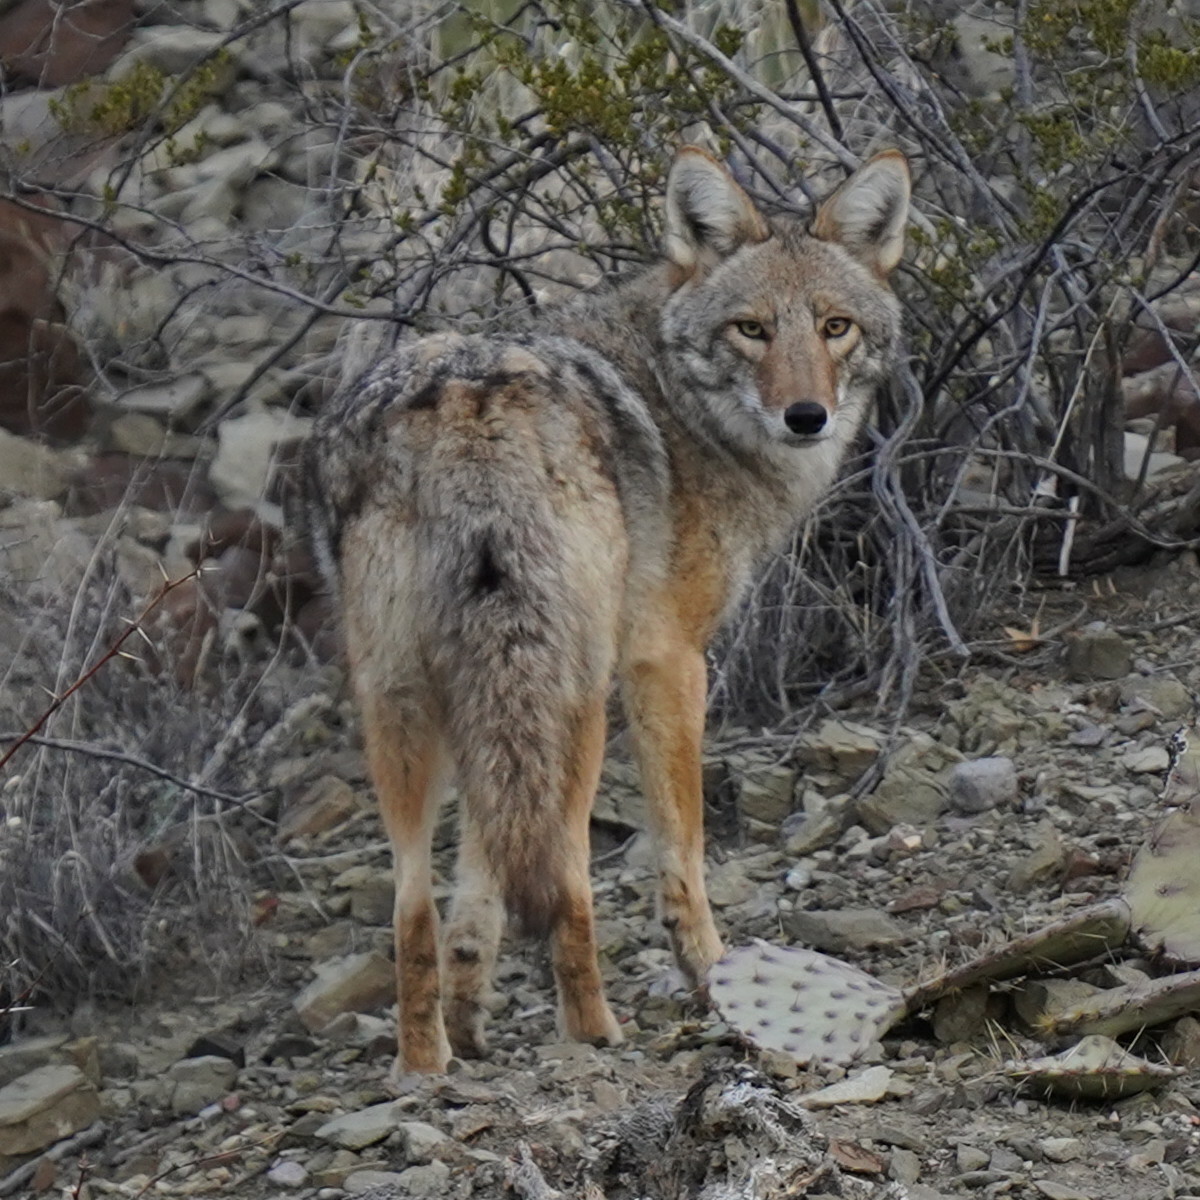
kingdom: Animalia
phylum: Chordata
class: Mammalia
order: Carnivora
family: Canidae
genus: Canis
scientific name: Canis latrans
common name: Coyote
